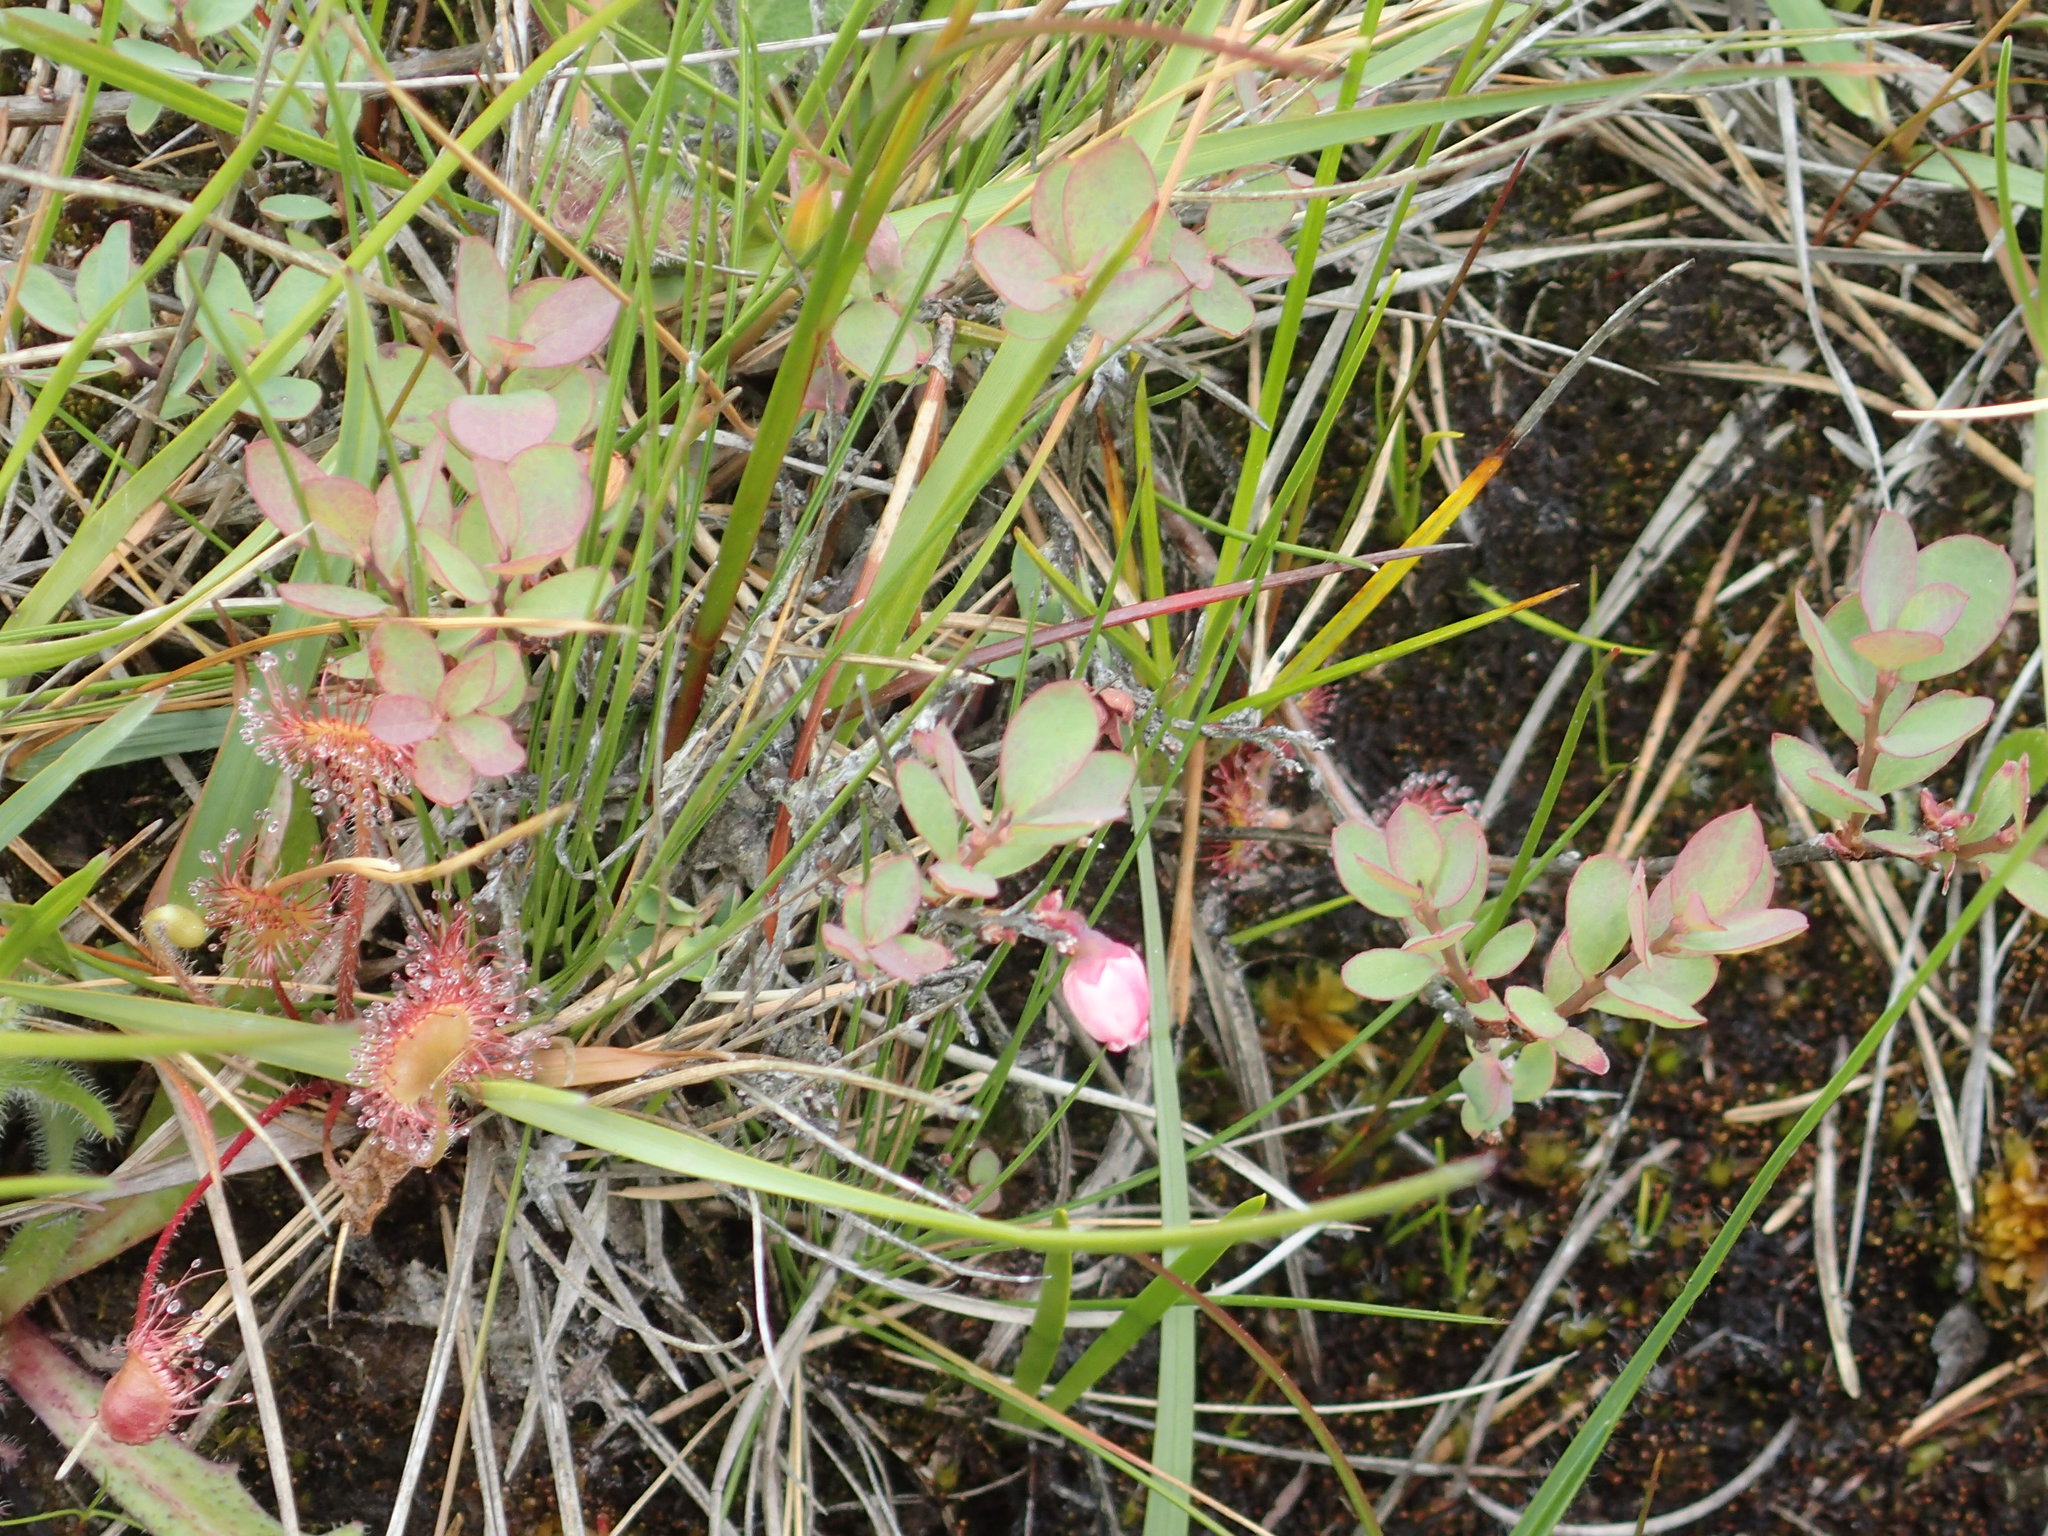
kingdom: Plantae
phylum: Tracheophyta
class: Magnoliopsida
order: Ericales
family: Ericaceae
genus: Vaccinium
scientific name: Vaccinium uliginosum
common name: Bog bilberry
